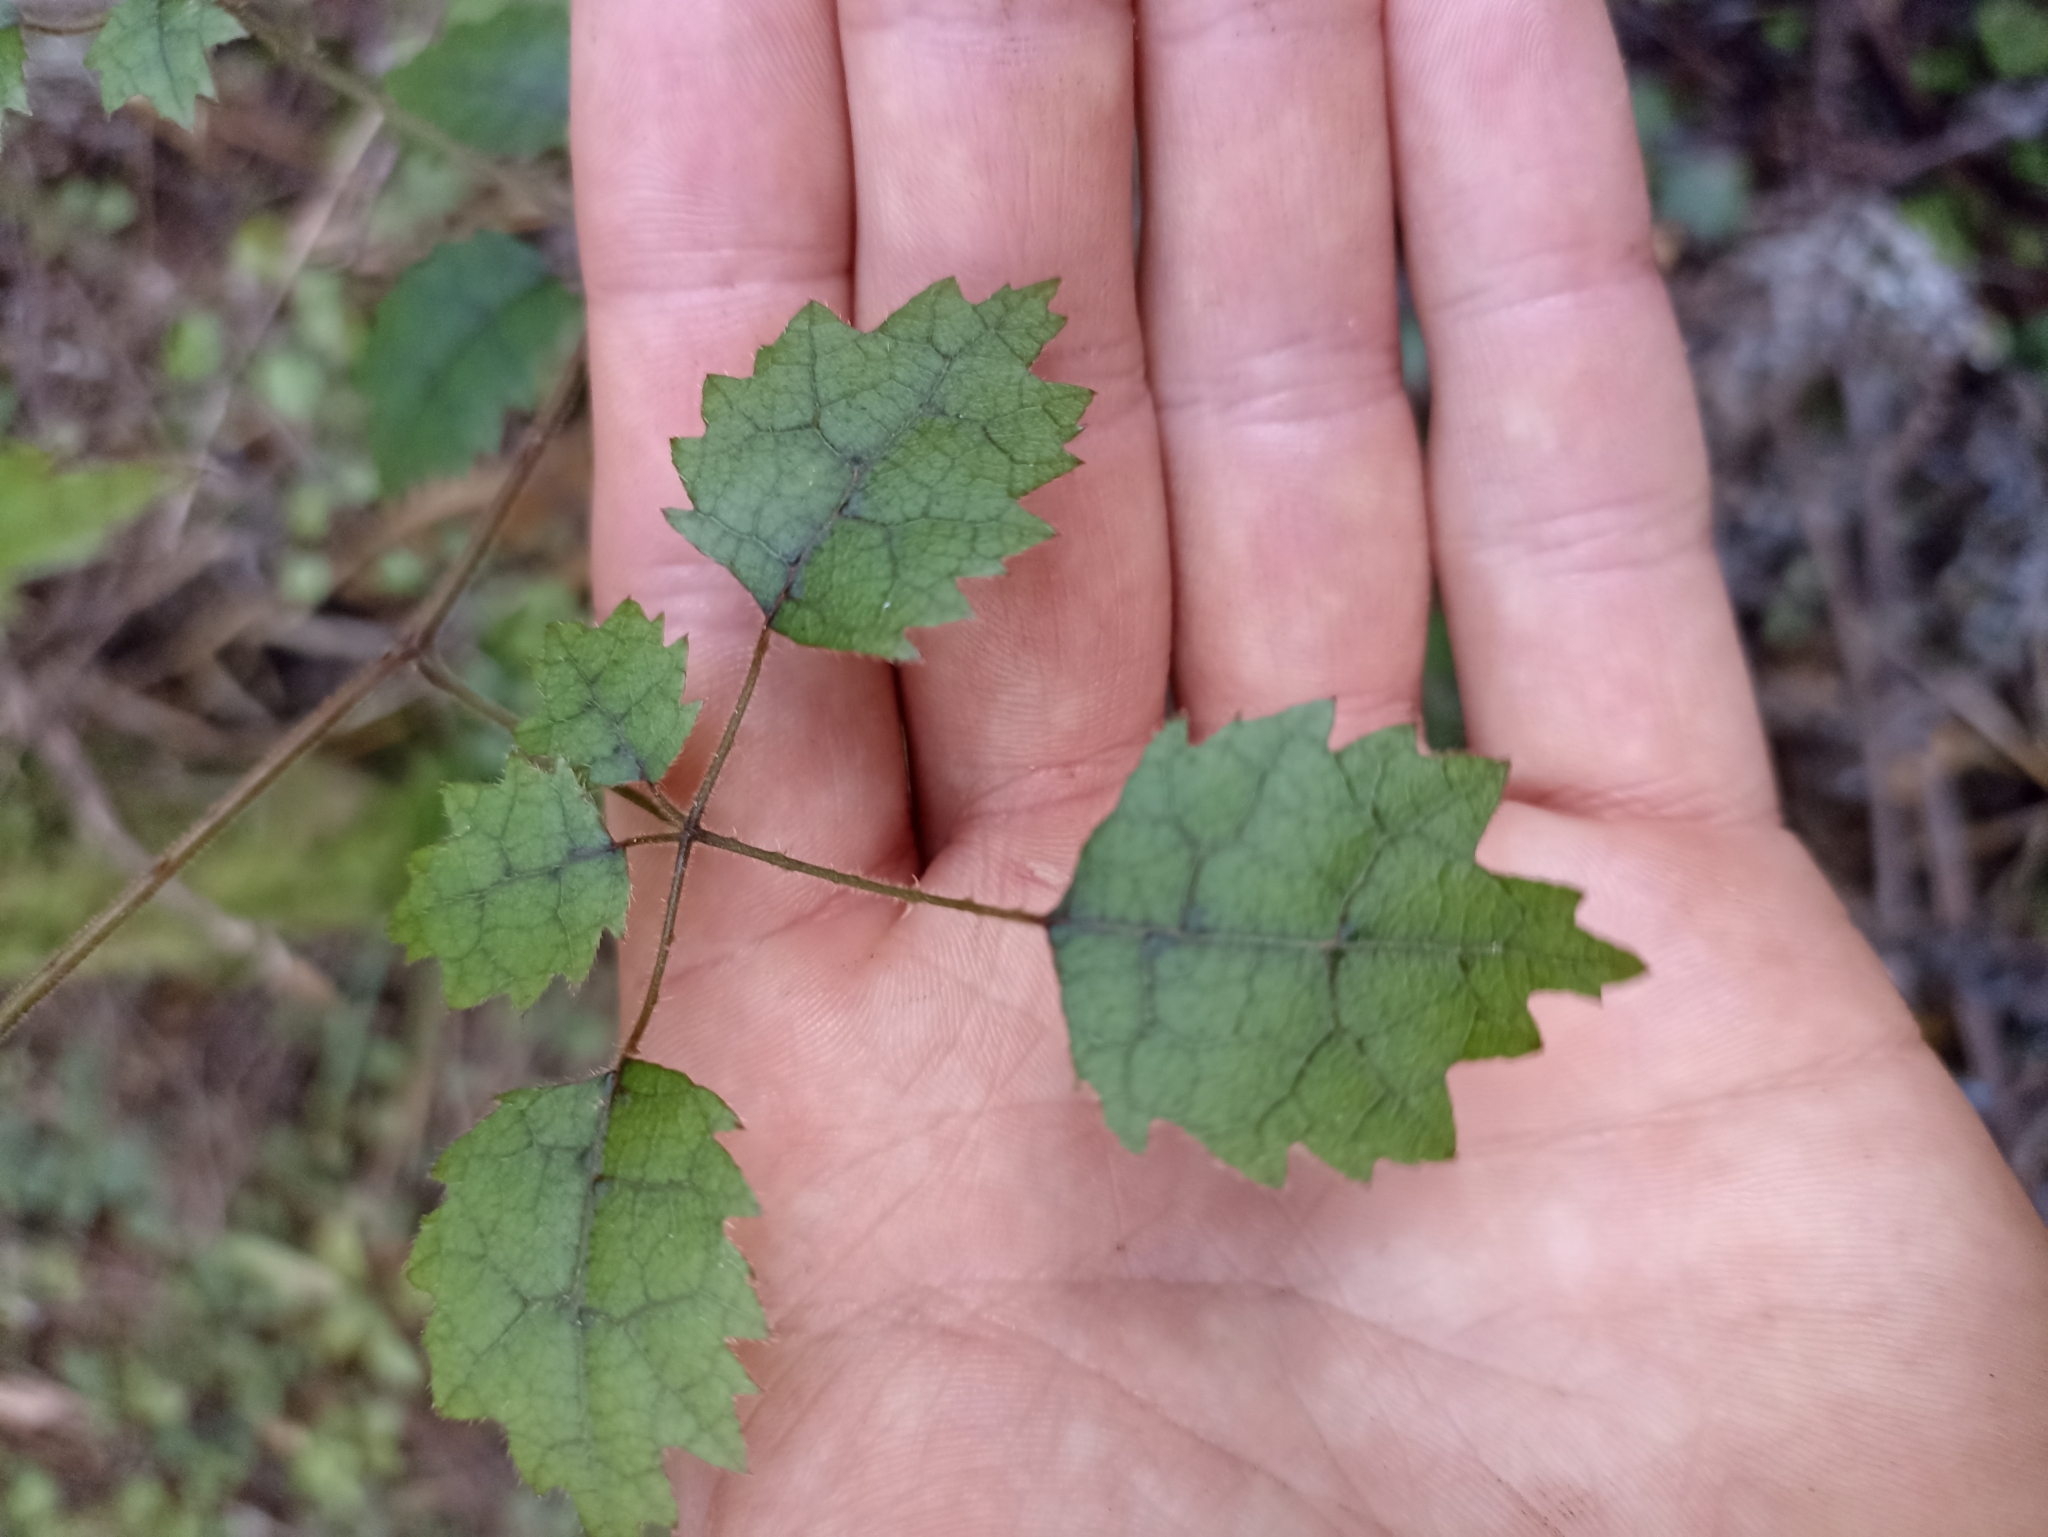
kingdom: Plantae
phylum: Tracheophyta
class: Magnoliopsida
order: Rosales
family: Rosaceae
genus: Rubus
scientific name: Rubus australis
